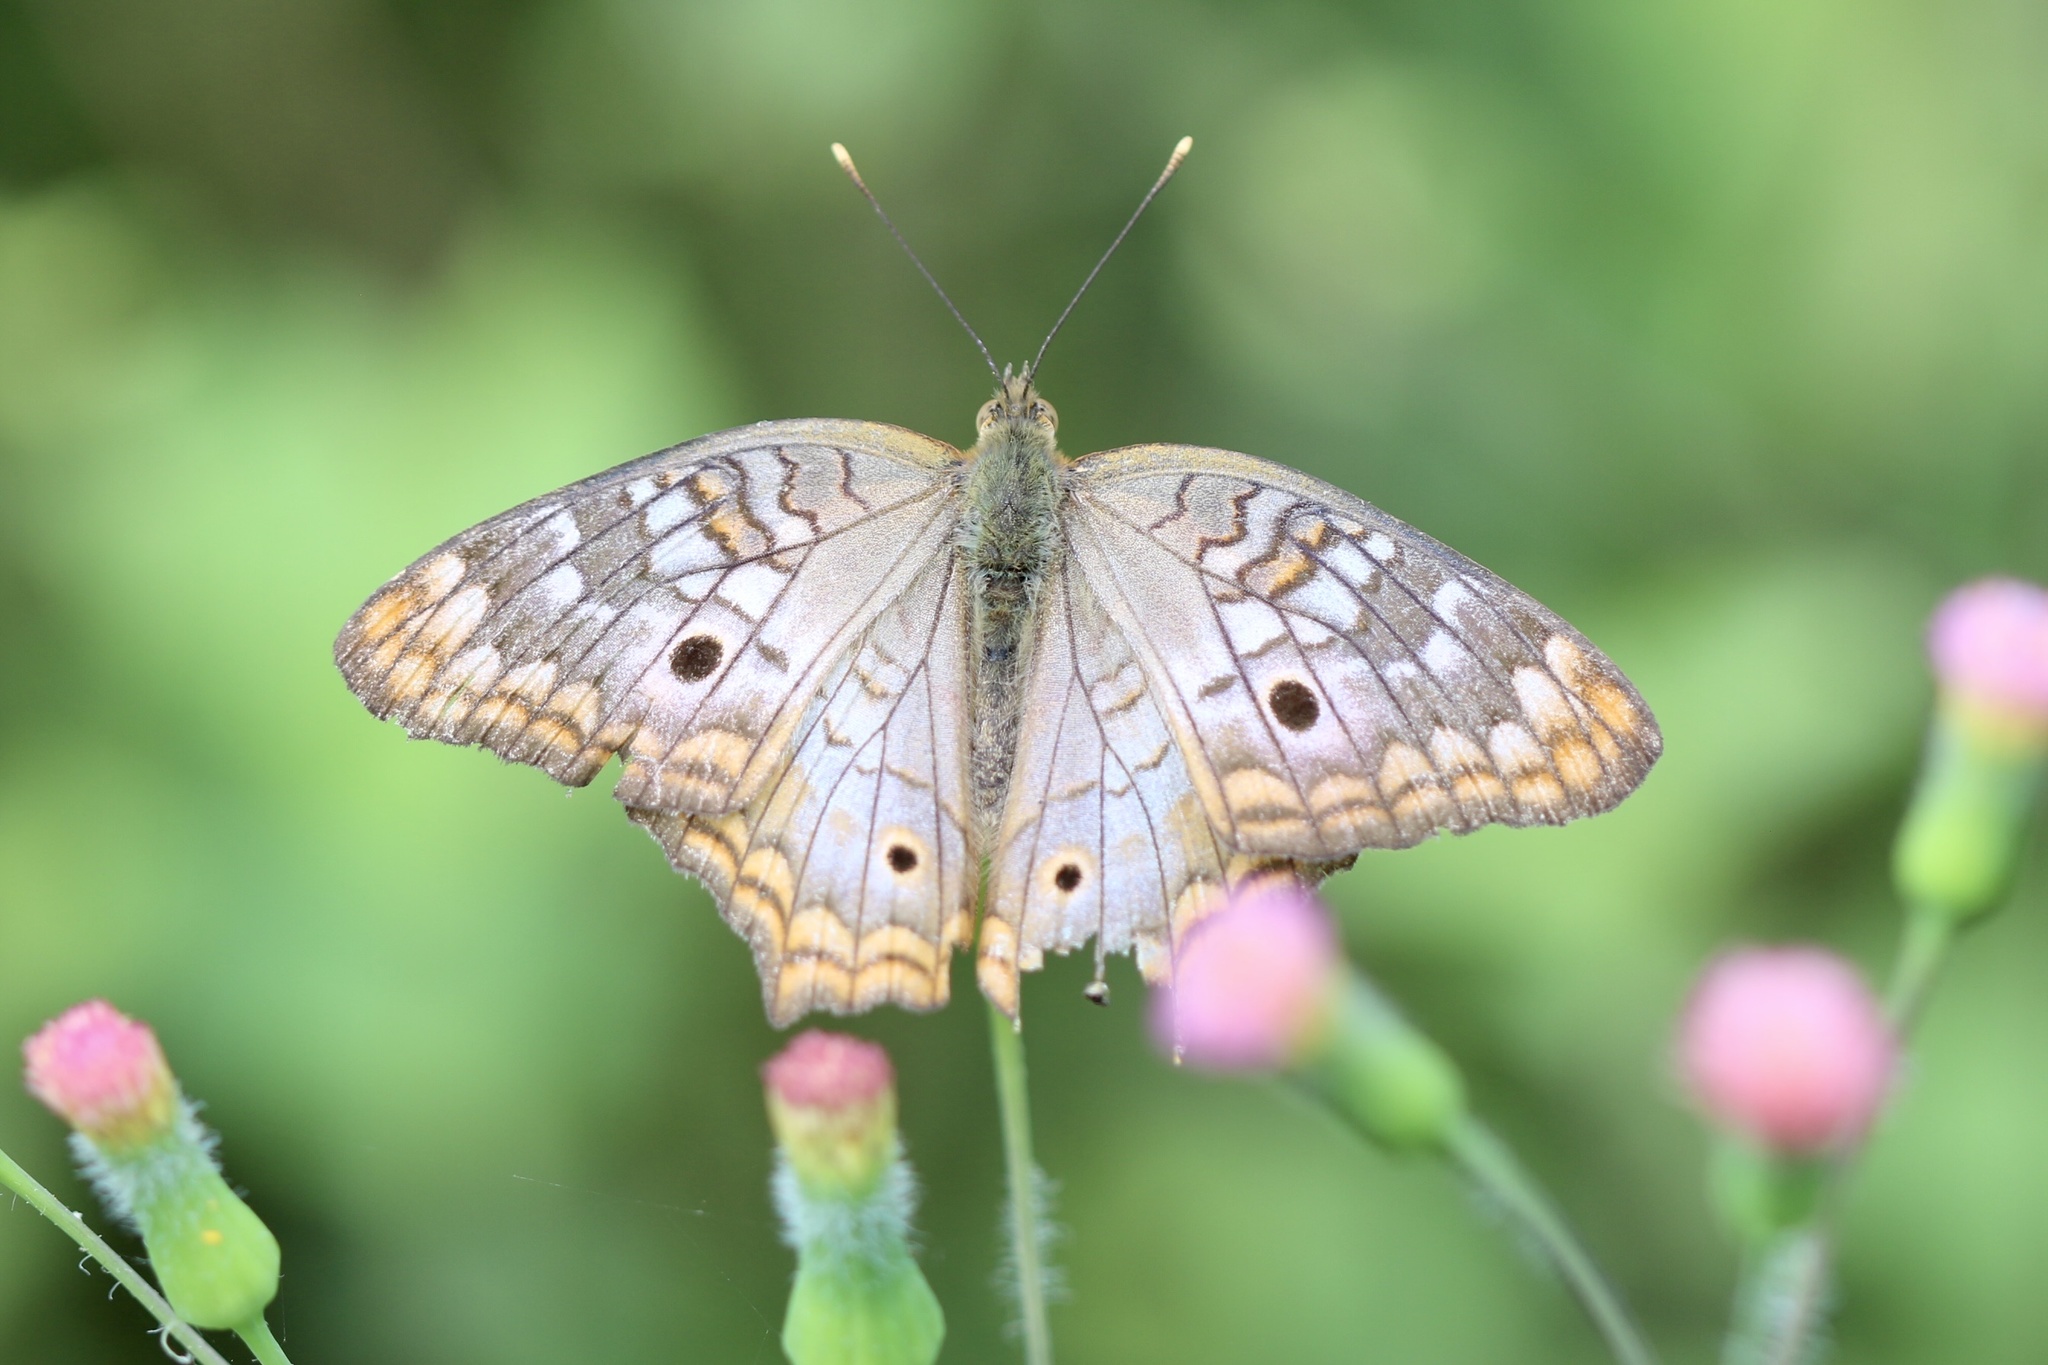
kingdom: Animalia
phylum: Arthropoda
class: Insecta
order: Lepidoptera
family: Nymphalidae
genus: Anartia
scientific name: Anartia jatrophae
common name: White peacock
